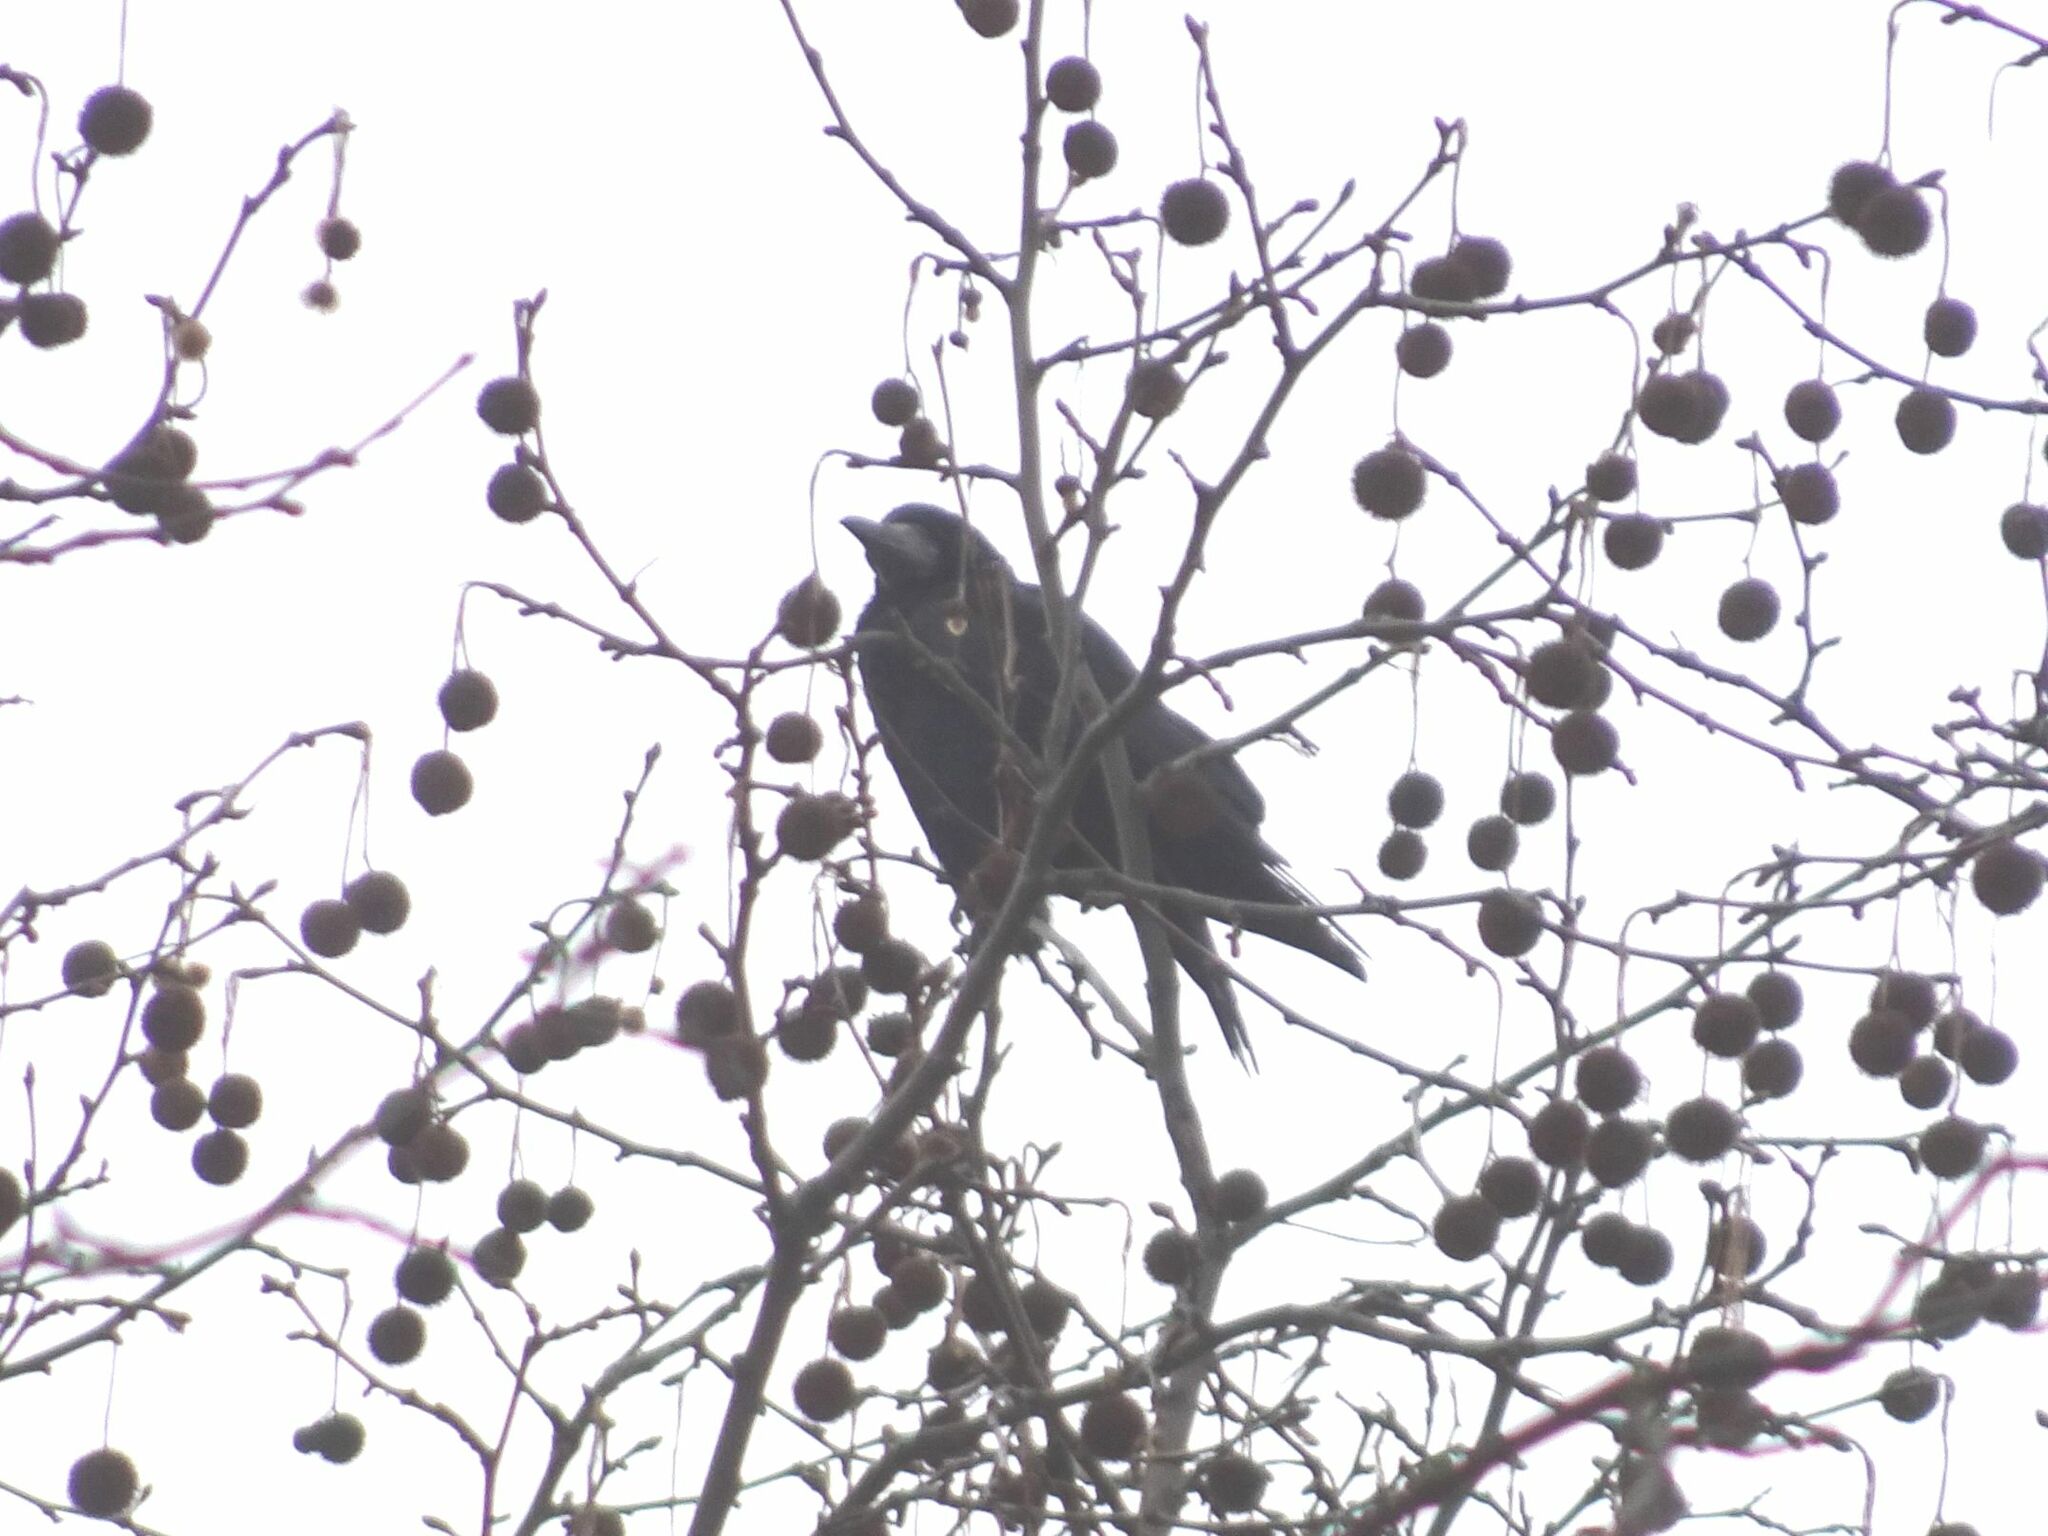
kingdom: Animalia
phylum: Chordata
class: Aves
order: Passeriformes
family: Corvidae
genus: Corvus
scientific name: Corvus frugilegus
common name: Rook
